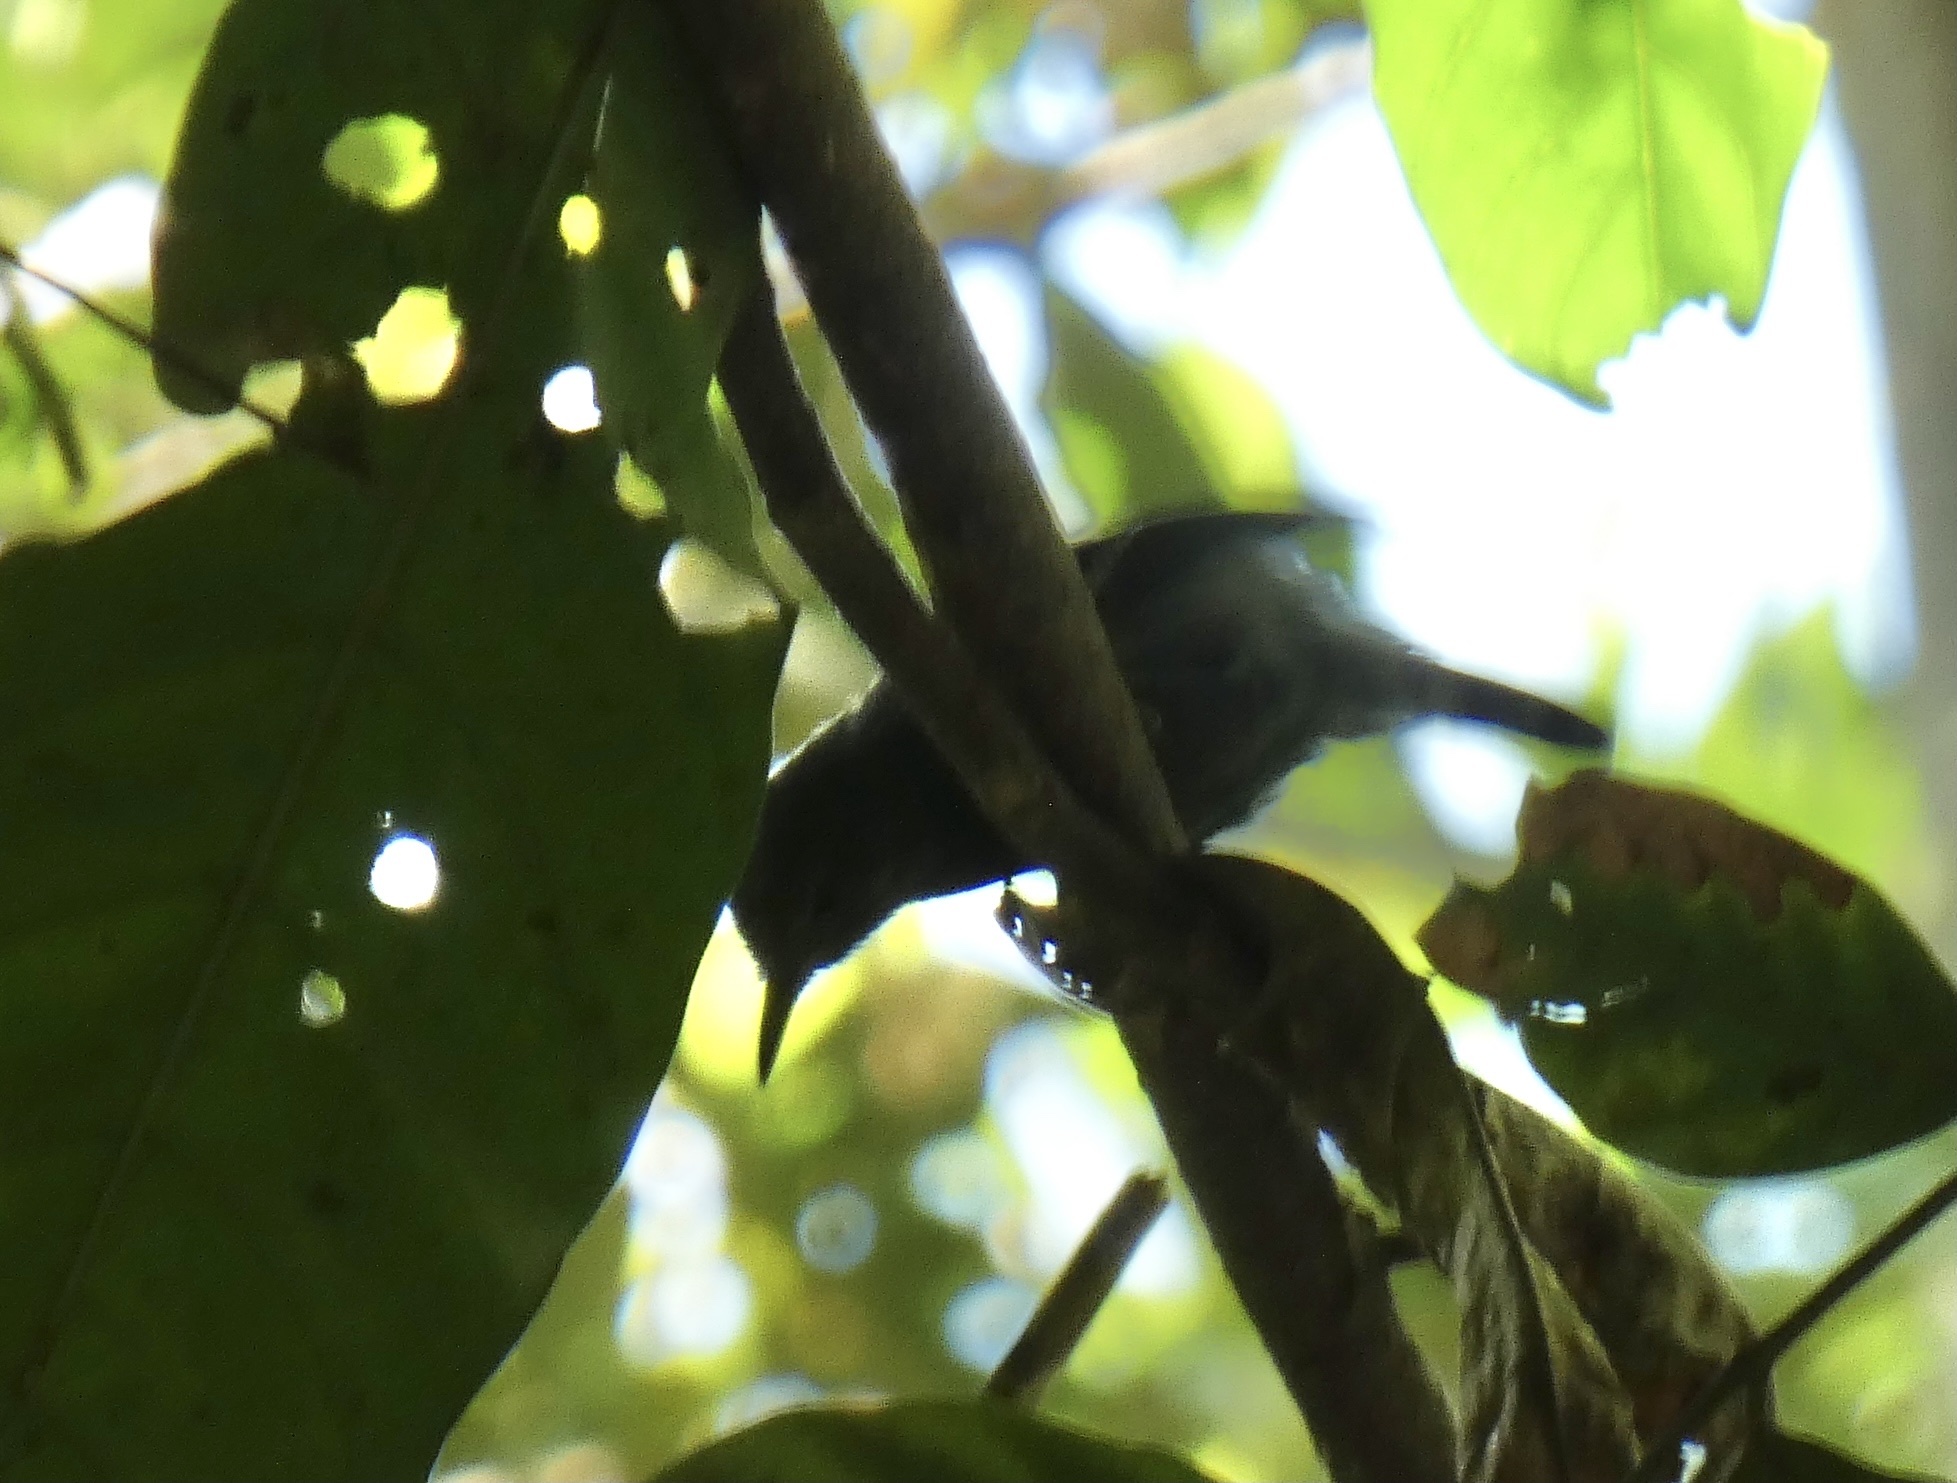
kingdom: Animalia
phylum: Chordata
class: Aves
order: Passeriformes
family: Thamnophilidae
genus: Myrmotherula
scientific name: Myrmotherula axillaris
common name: White-flanked antwren
